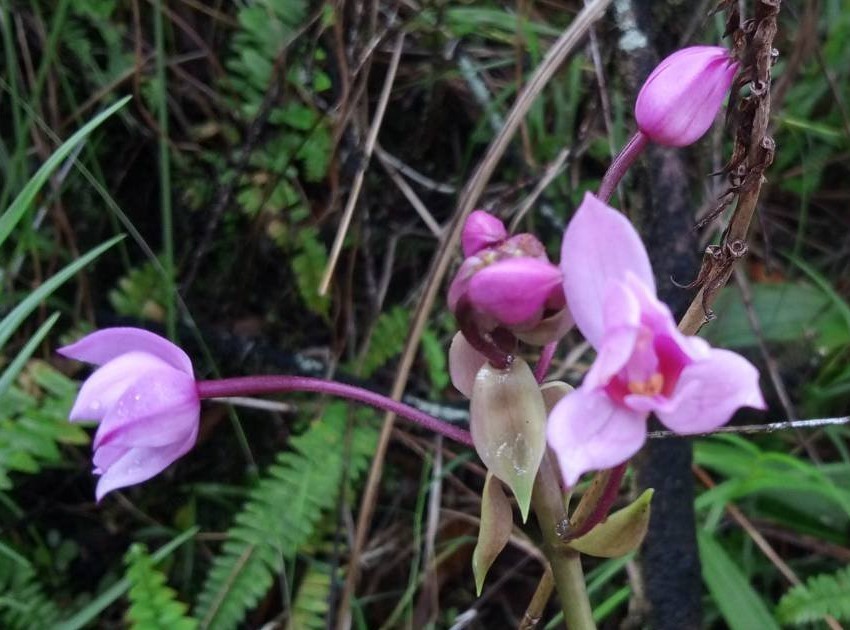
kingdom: Plantae
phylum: Tracheophyta
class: Liliopsida
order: Asparagales
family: Orchidaceae
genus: Spathoglottis
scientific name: Spathoglottis plicata
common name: Philippine ground orchid
